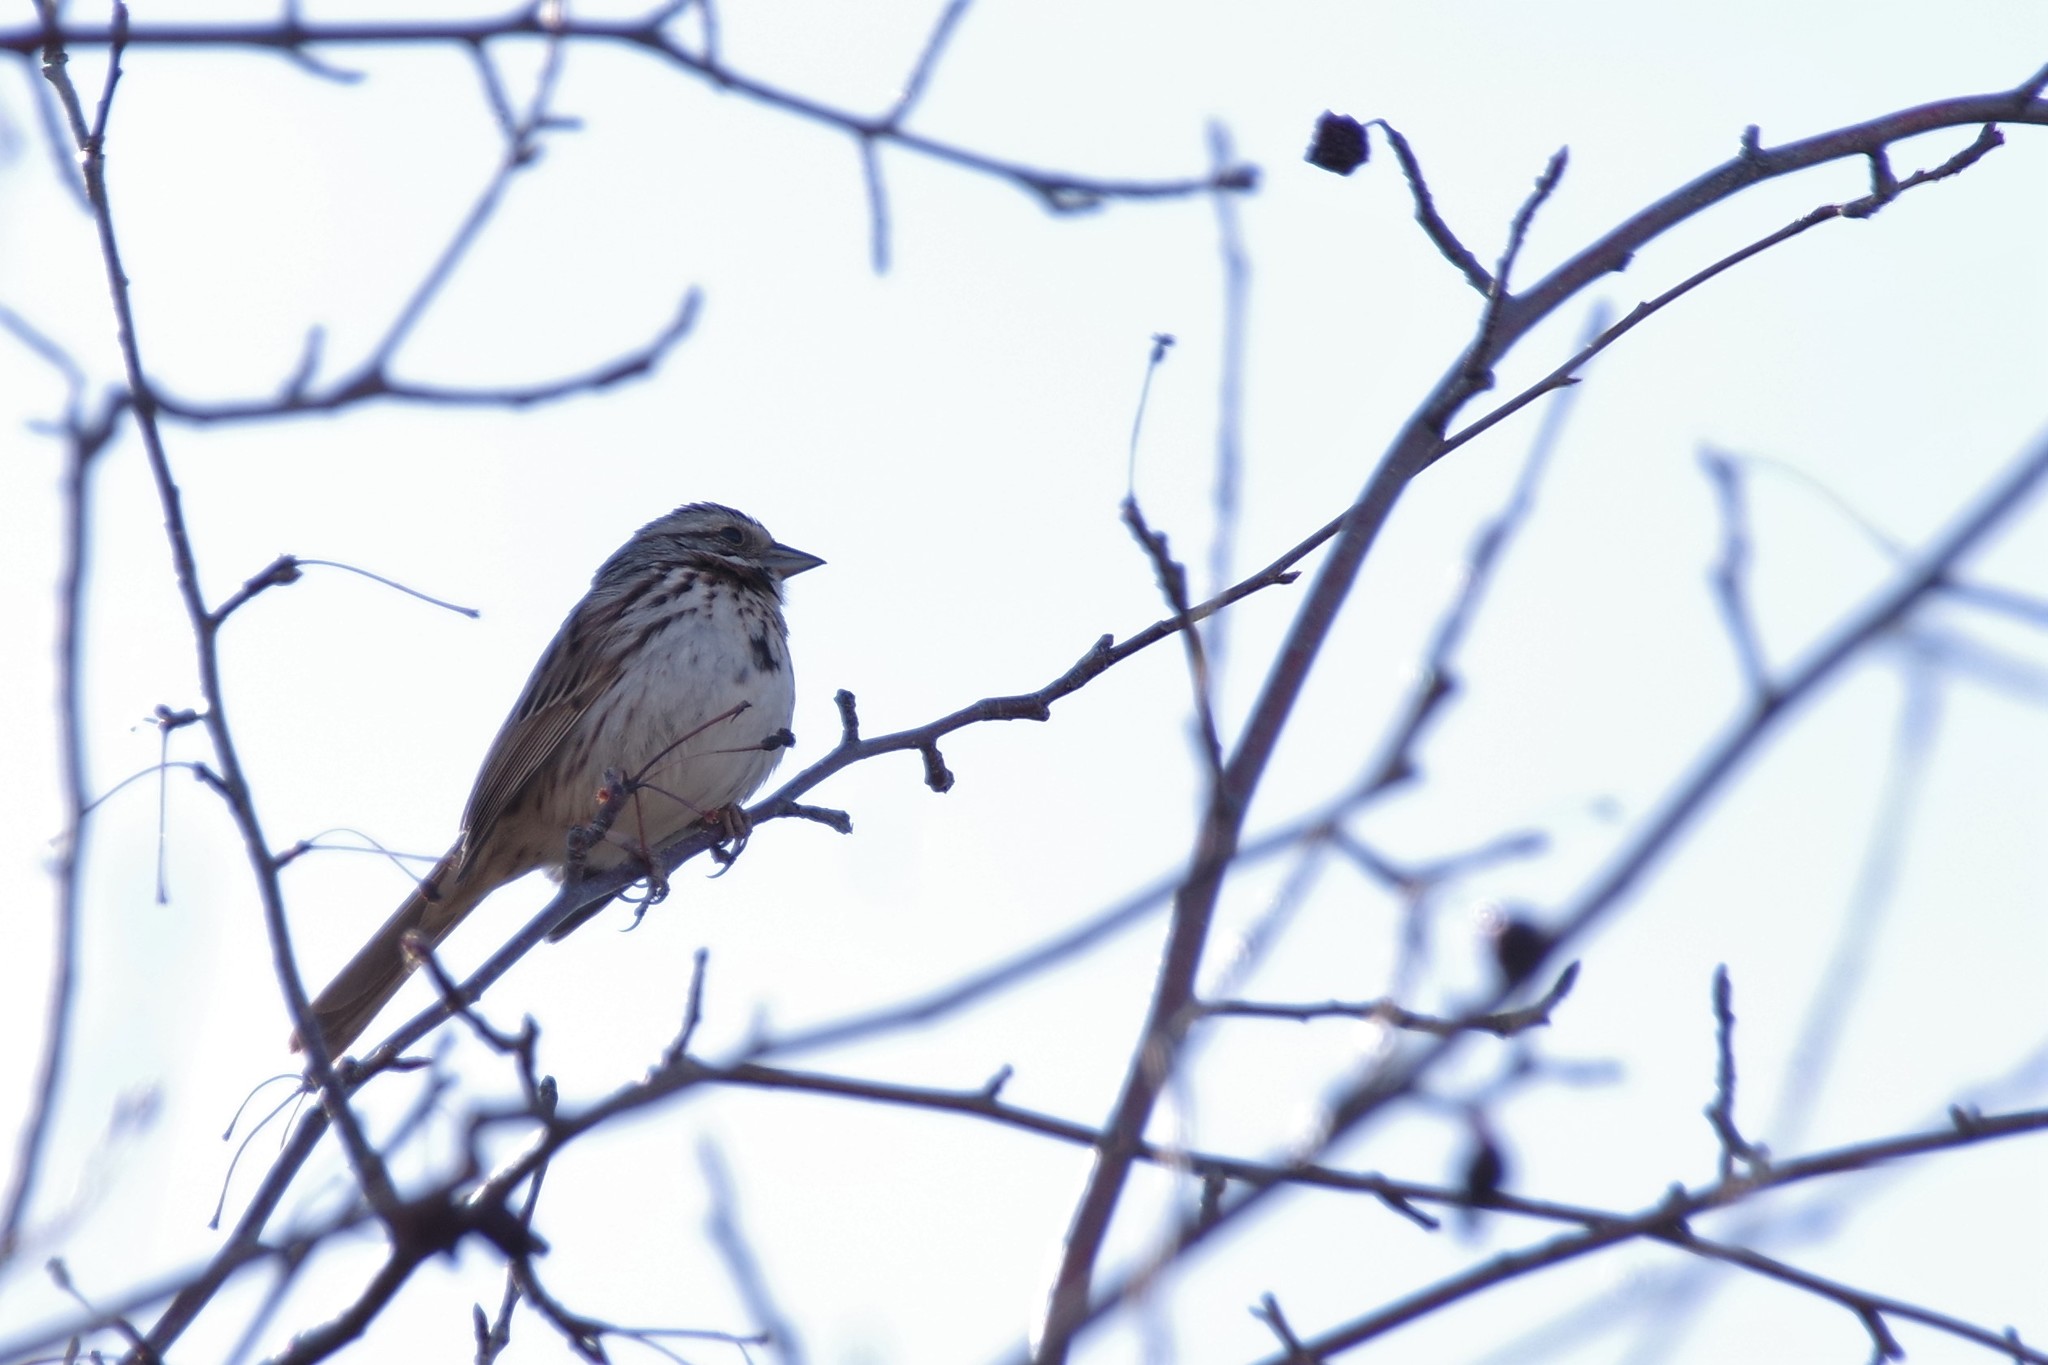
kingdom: Animalia
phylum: Chordata
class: Aves
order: Passeriformes
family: Passerellidae
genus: Melospiza
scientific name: Melospiza melodia
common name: Song sparrow
